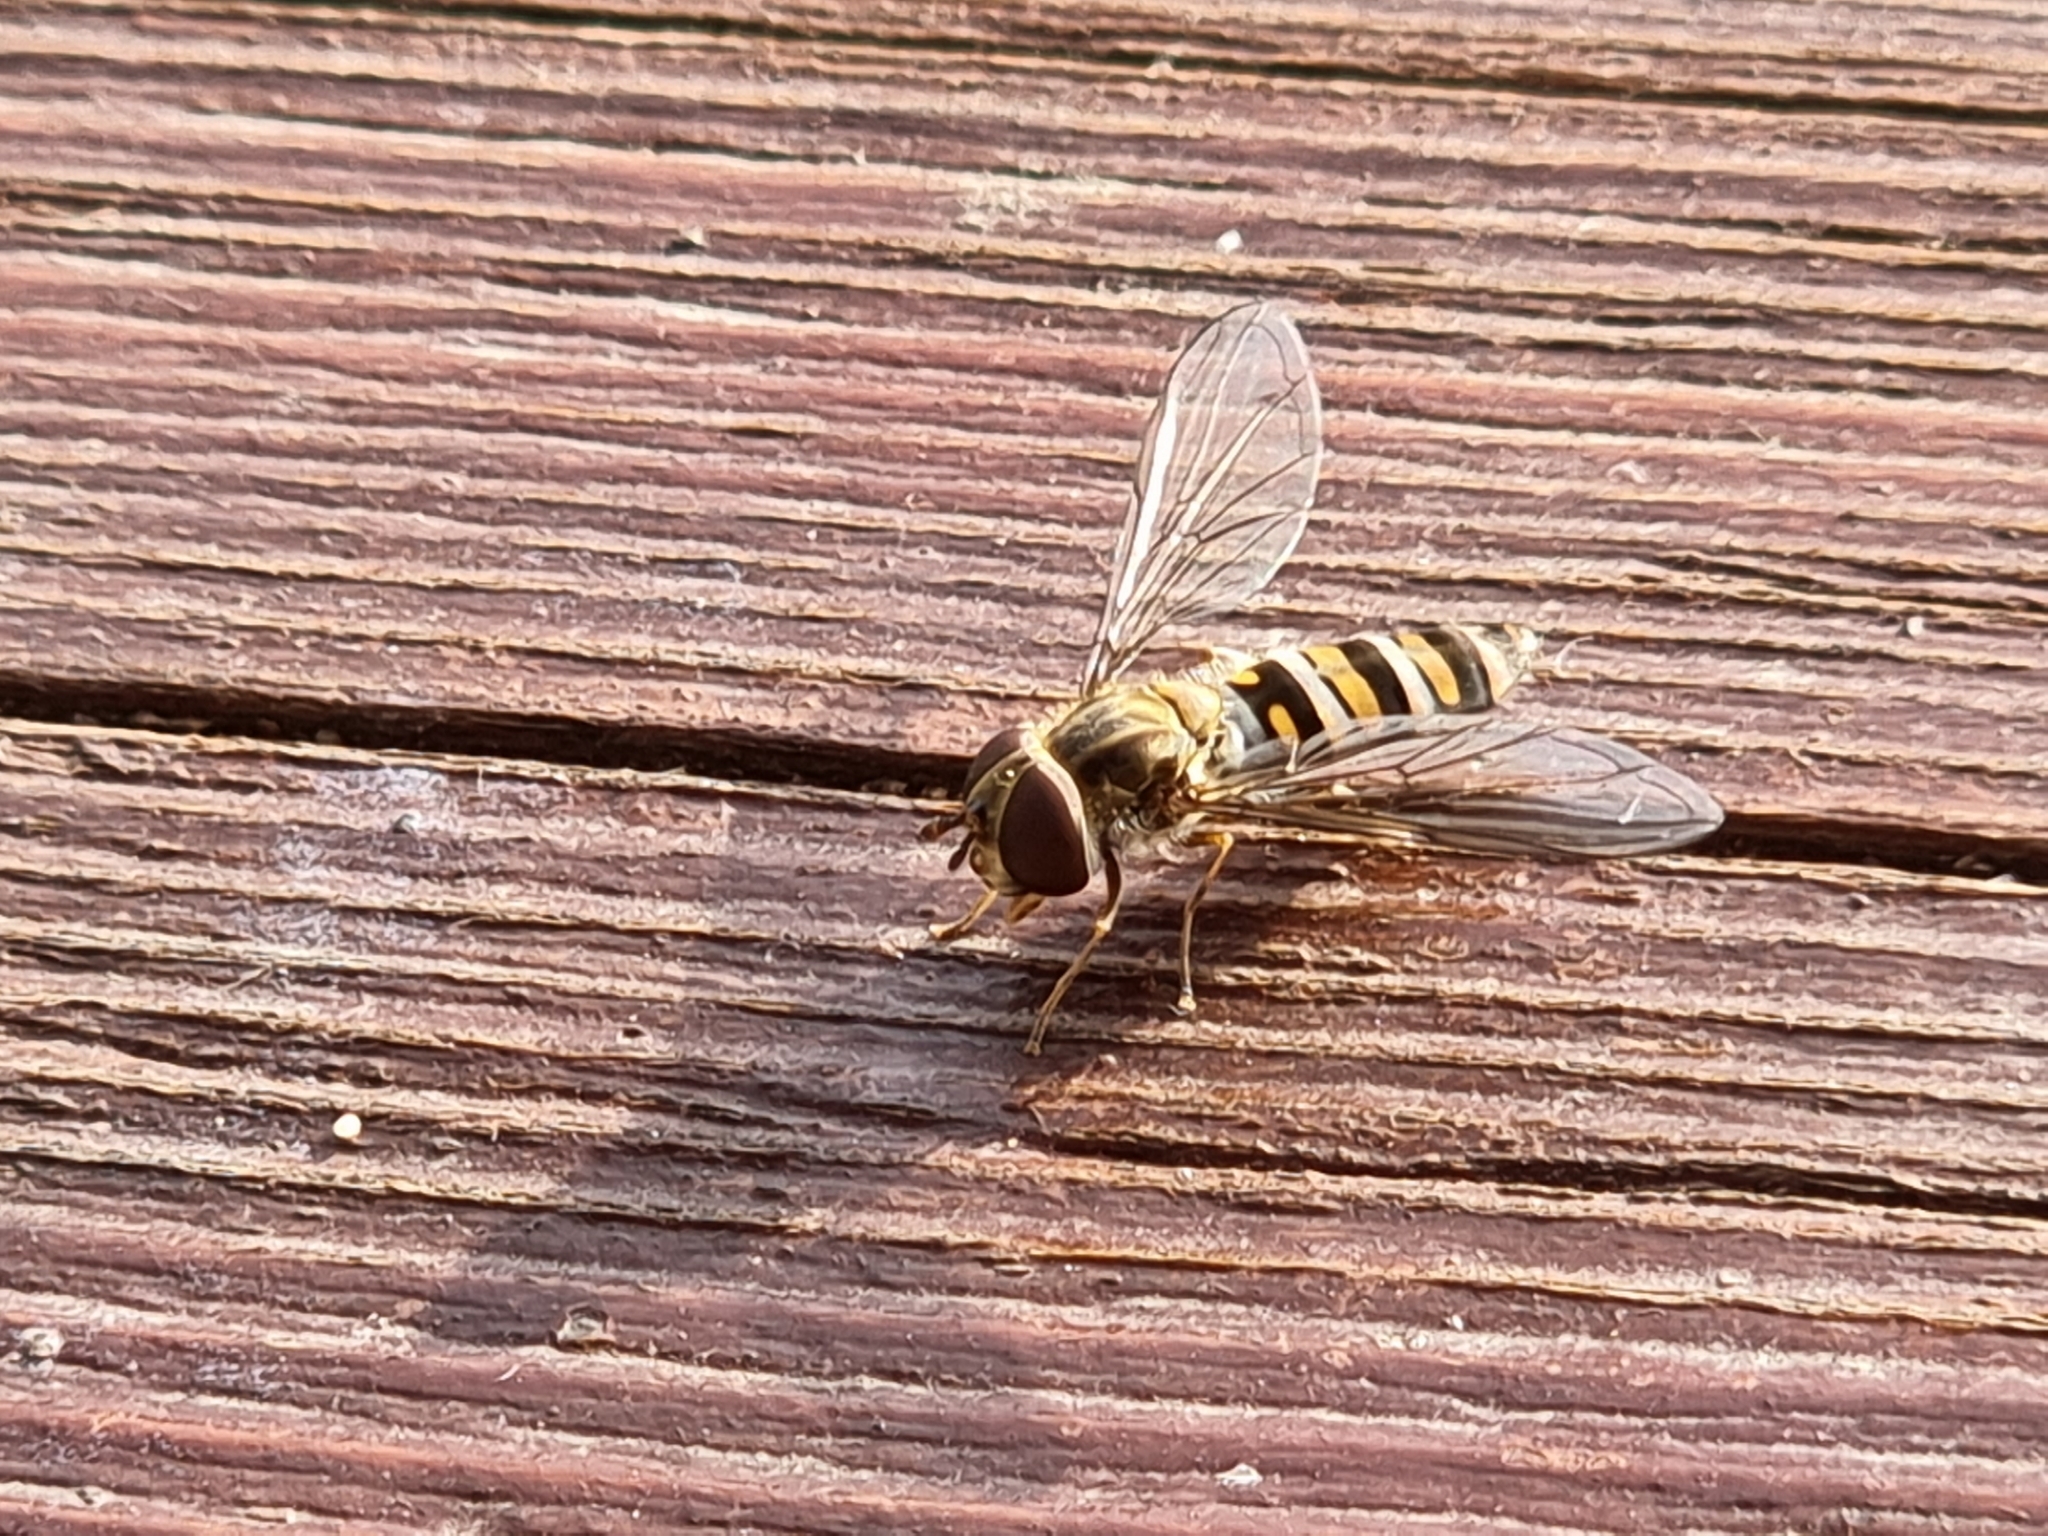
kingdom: Animalia
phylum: Arthropoda
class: Insecta
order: Diptera
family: Syrphidae
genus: Episyrphus
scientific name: Episyrphus balteatus
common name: Marmalade hoverfly
